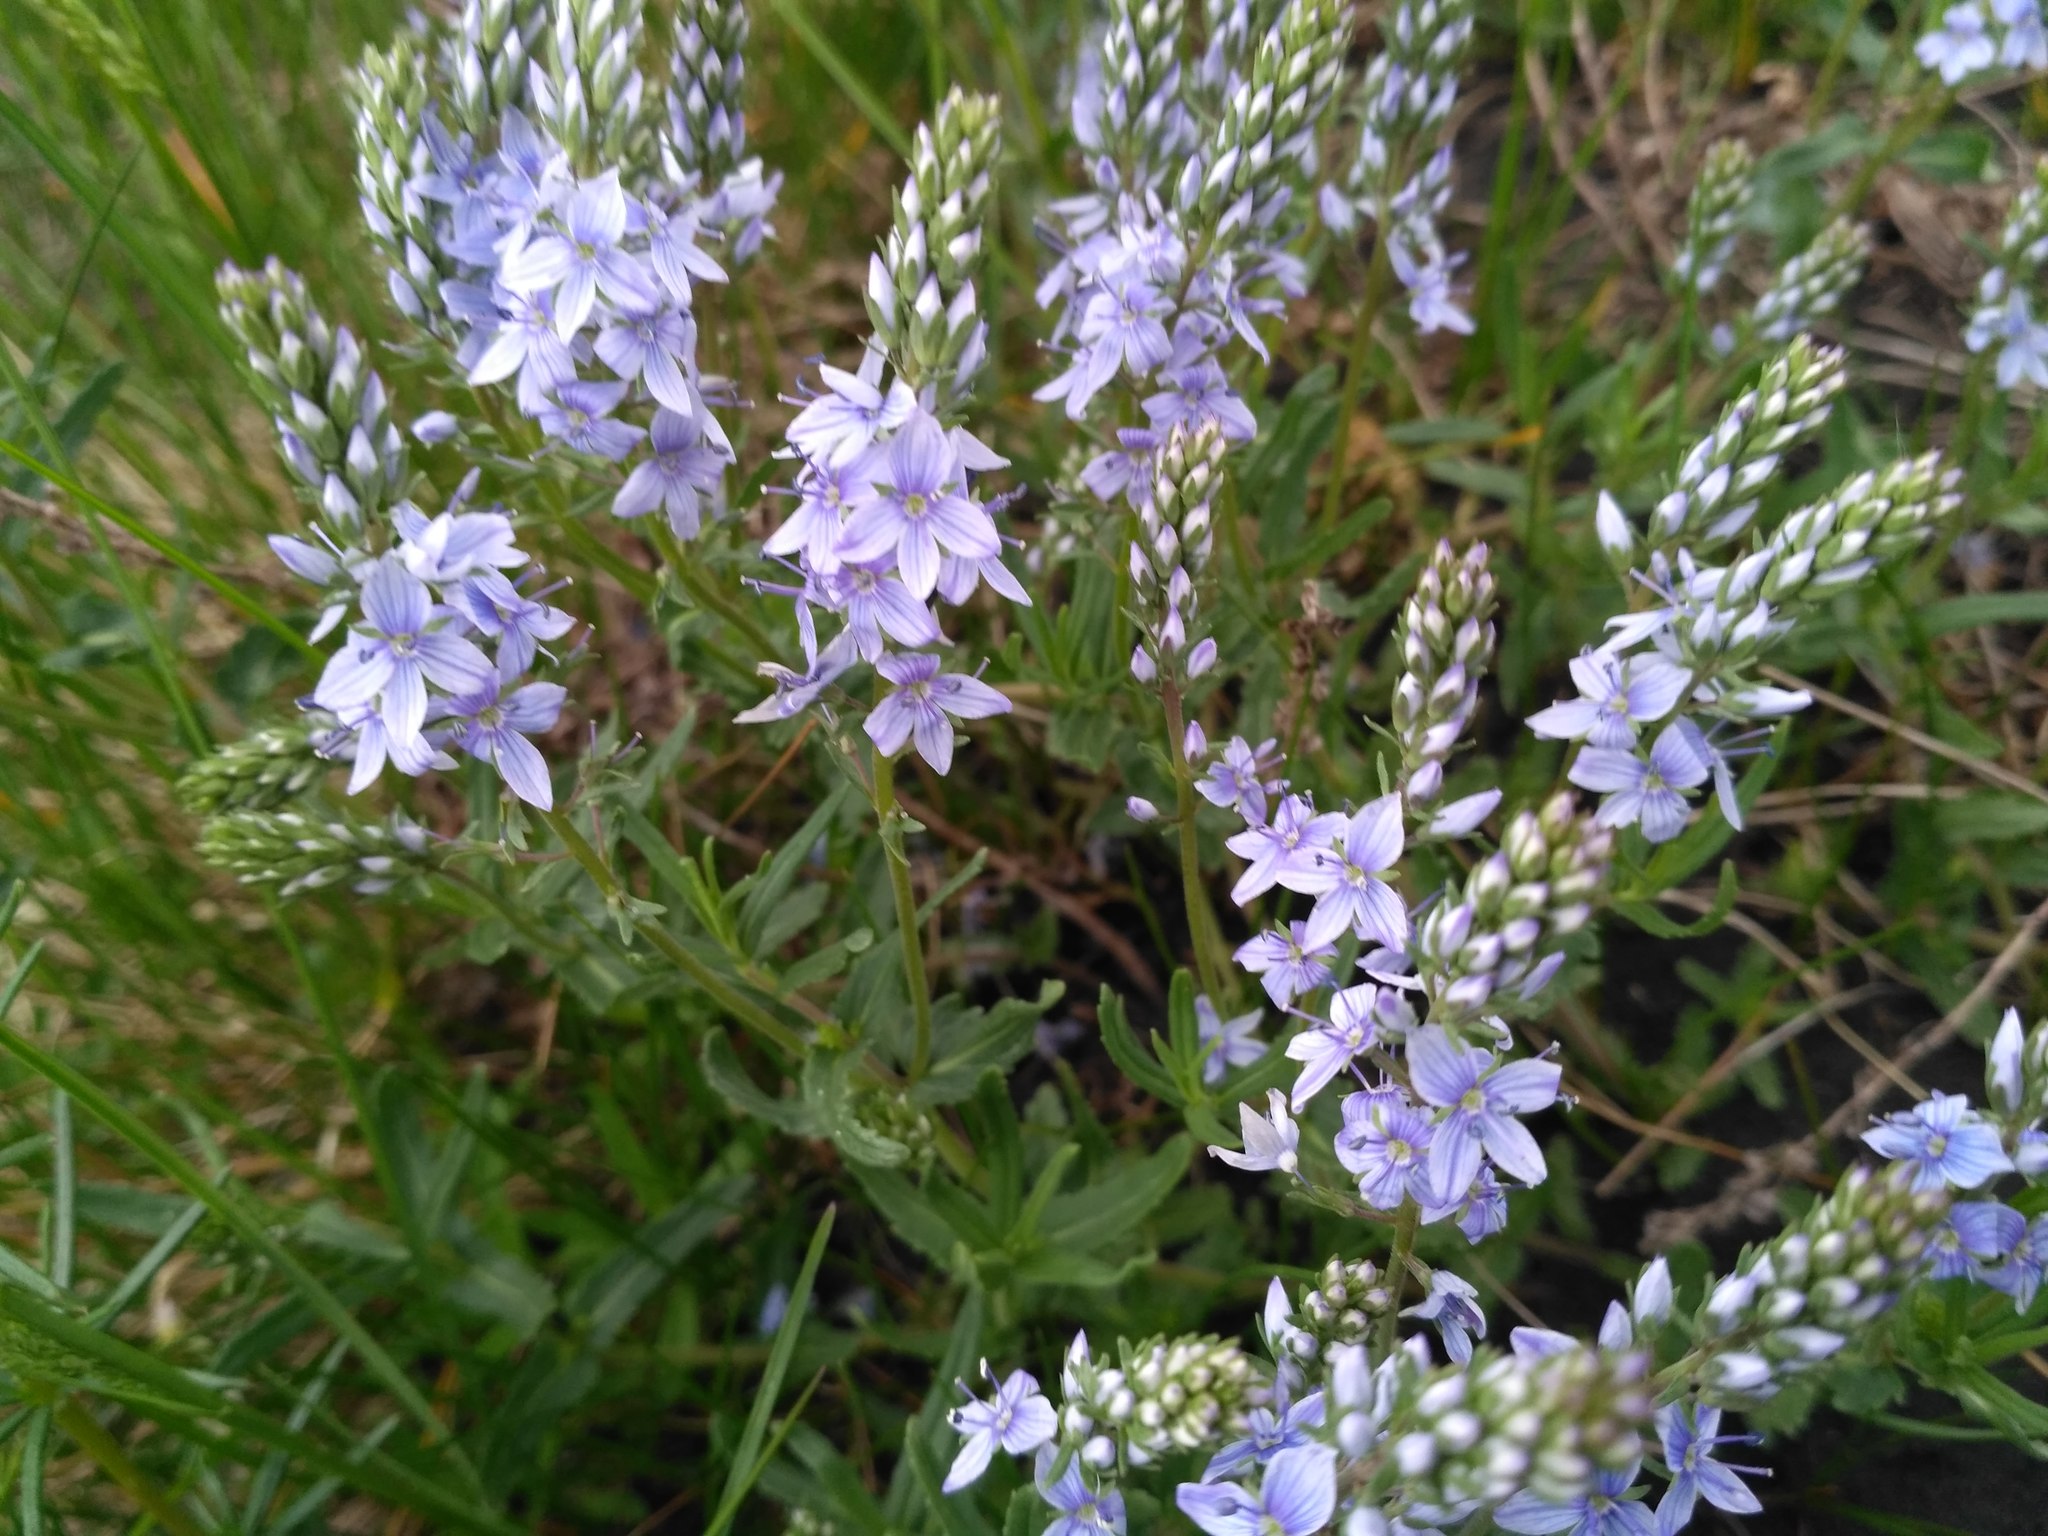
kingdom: Plantae
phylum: Tracheophyta
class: Magnoliopsida
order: Lamiales
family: Plantaginaceae
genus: Veronica
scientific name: Veronica prostrata
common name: Prostrate speedwell
